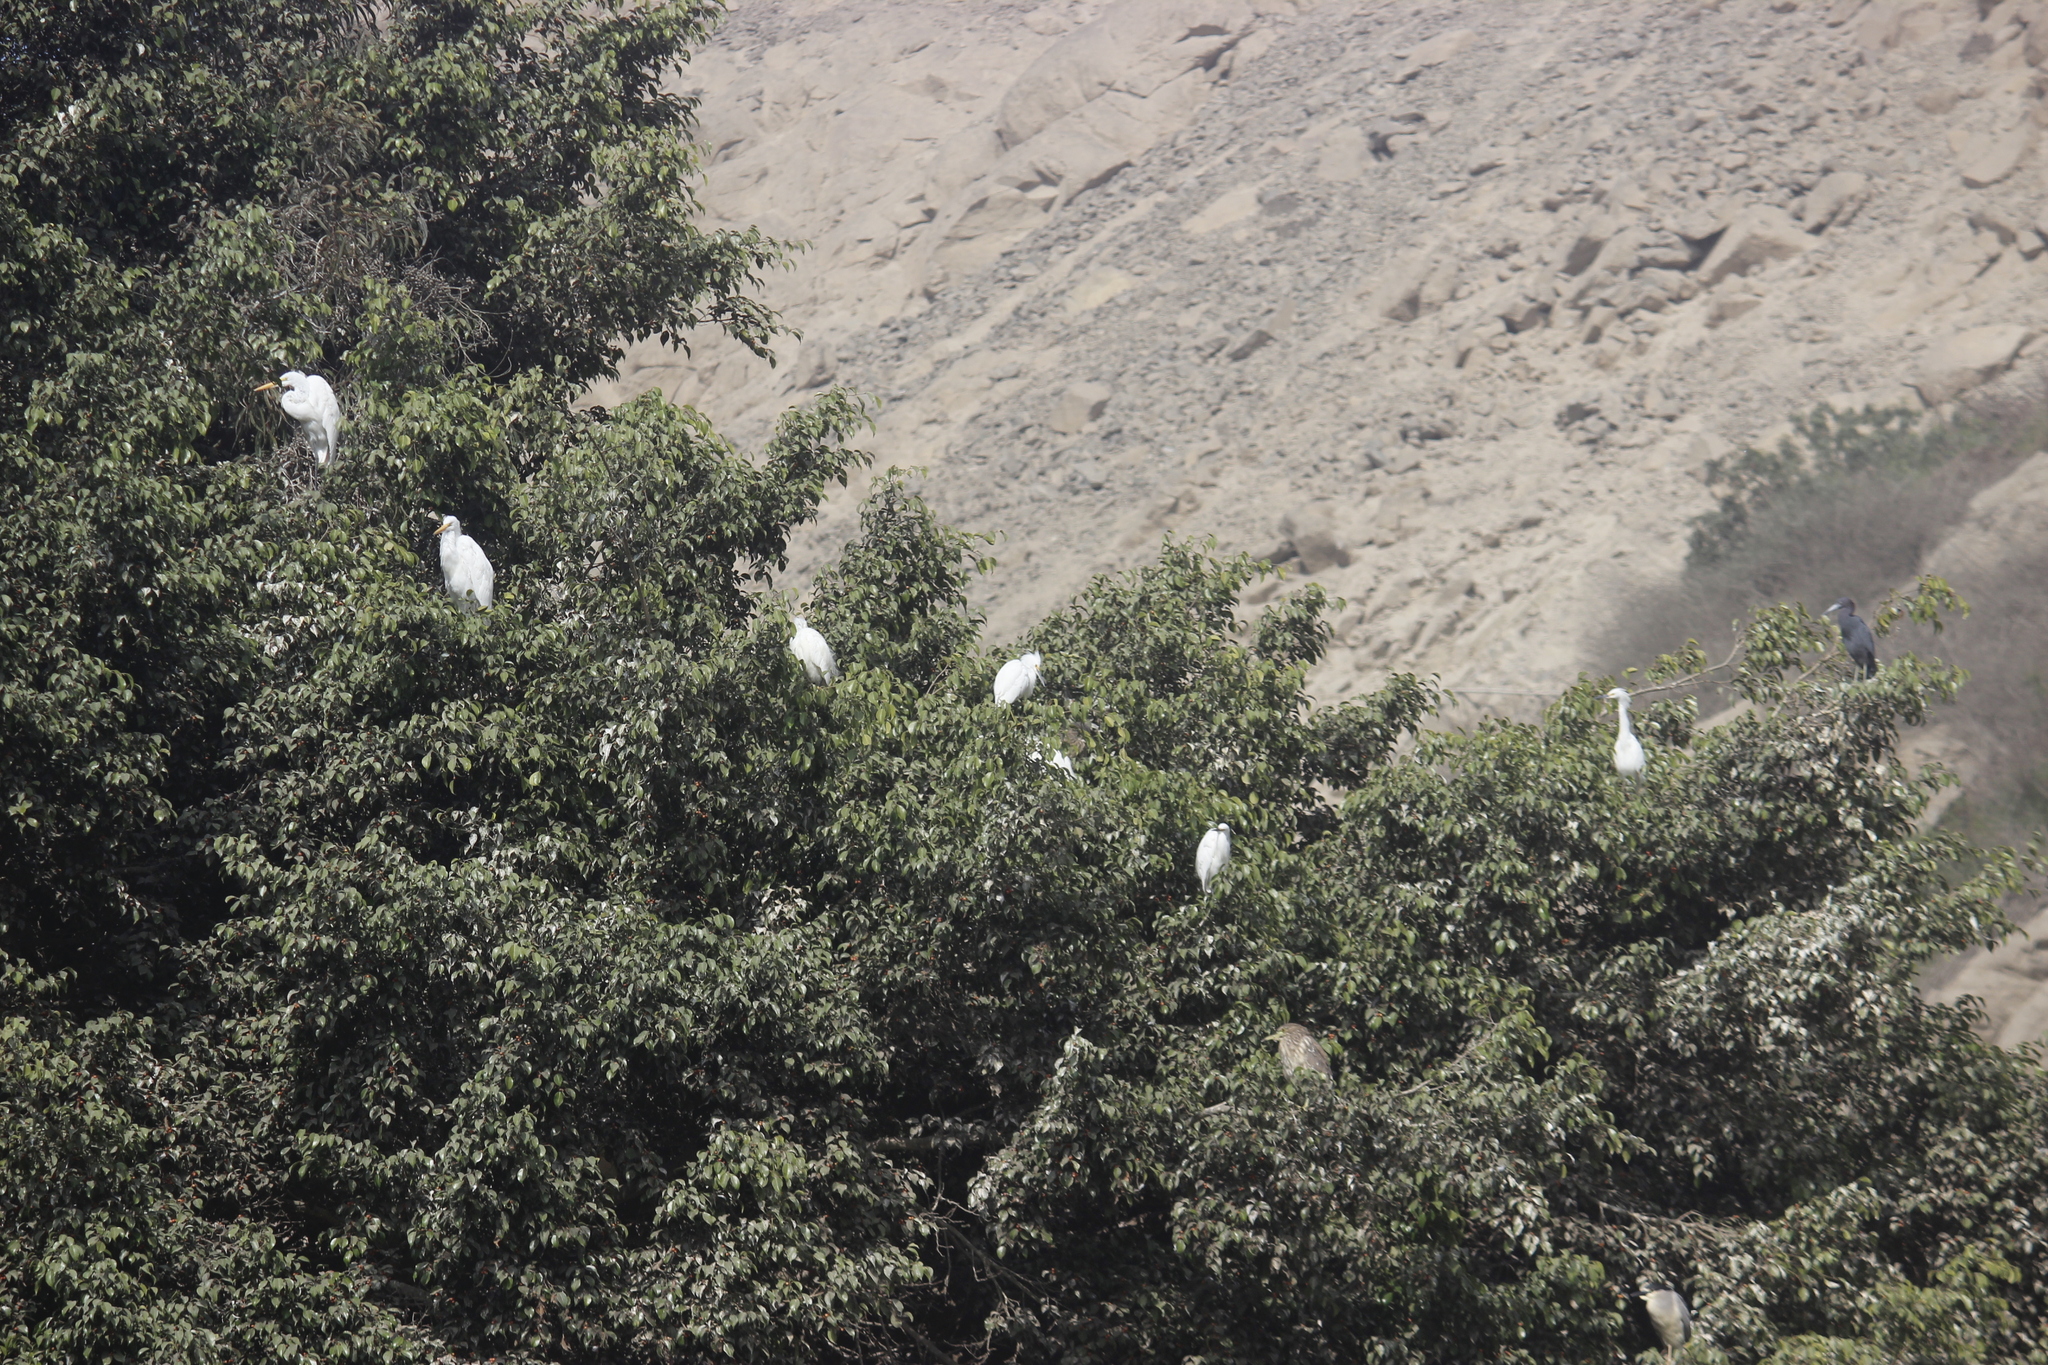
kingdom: Animalia
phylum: Chordata
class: Aves
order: Pelecaniformes
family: Ardeidae
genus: Egretta
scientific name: Egretta thula
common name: Snowy egret
